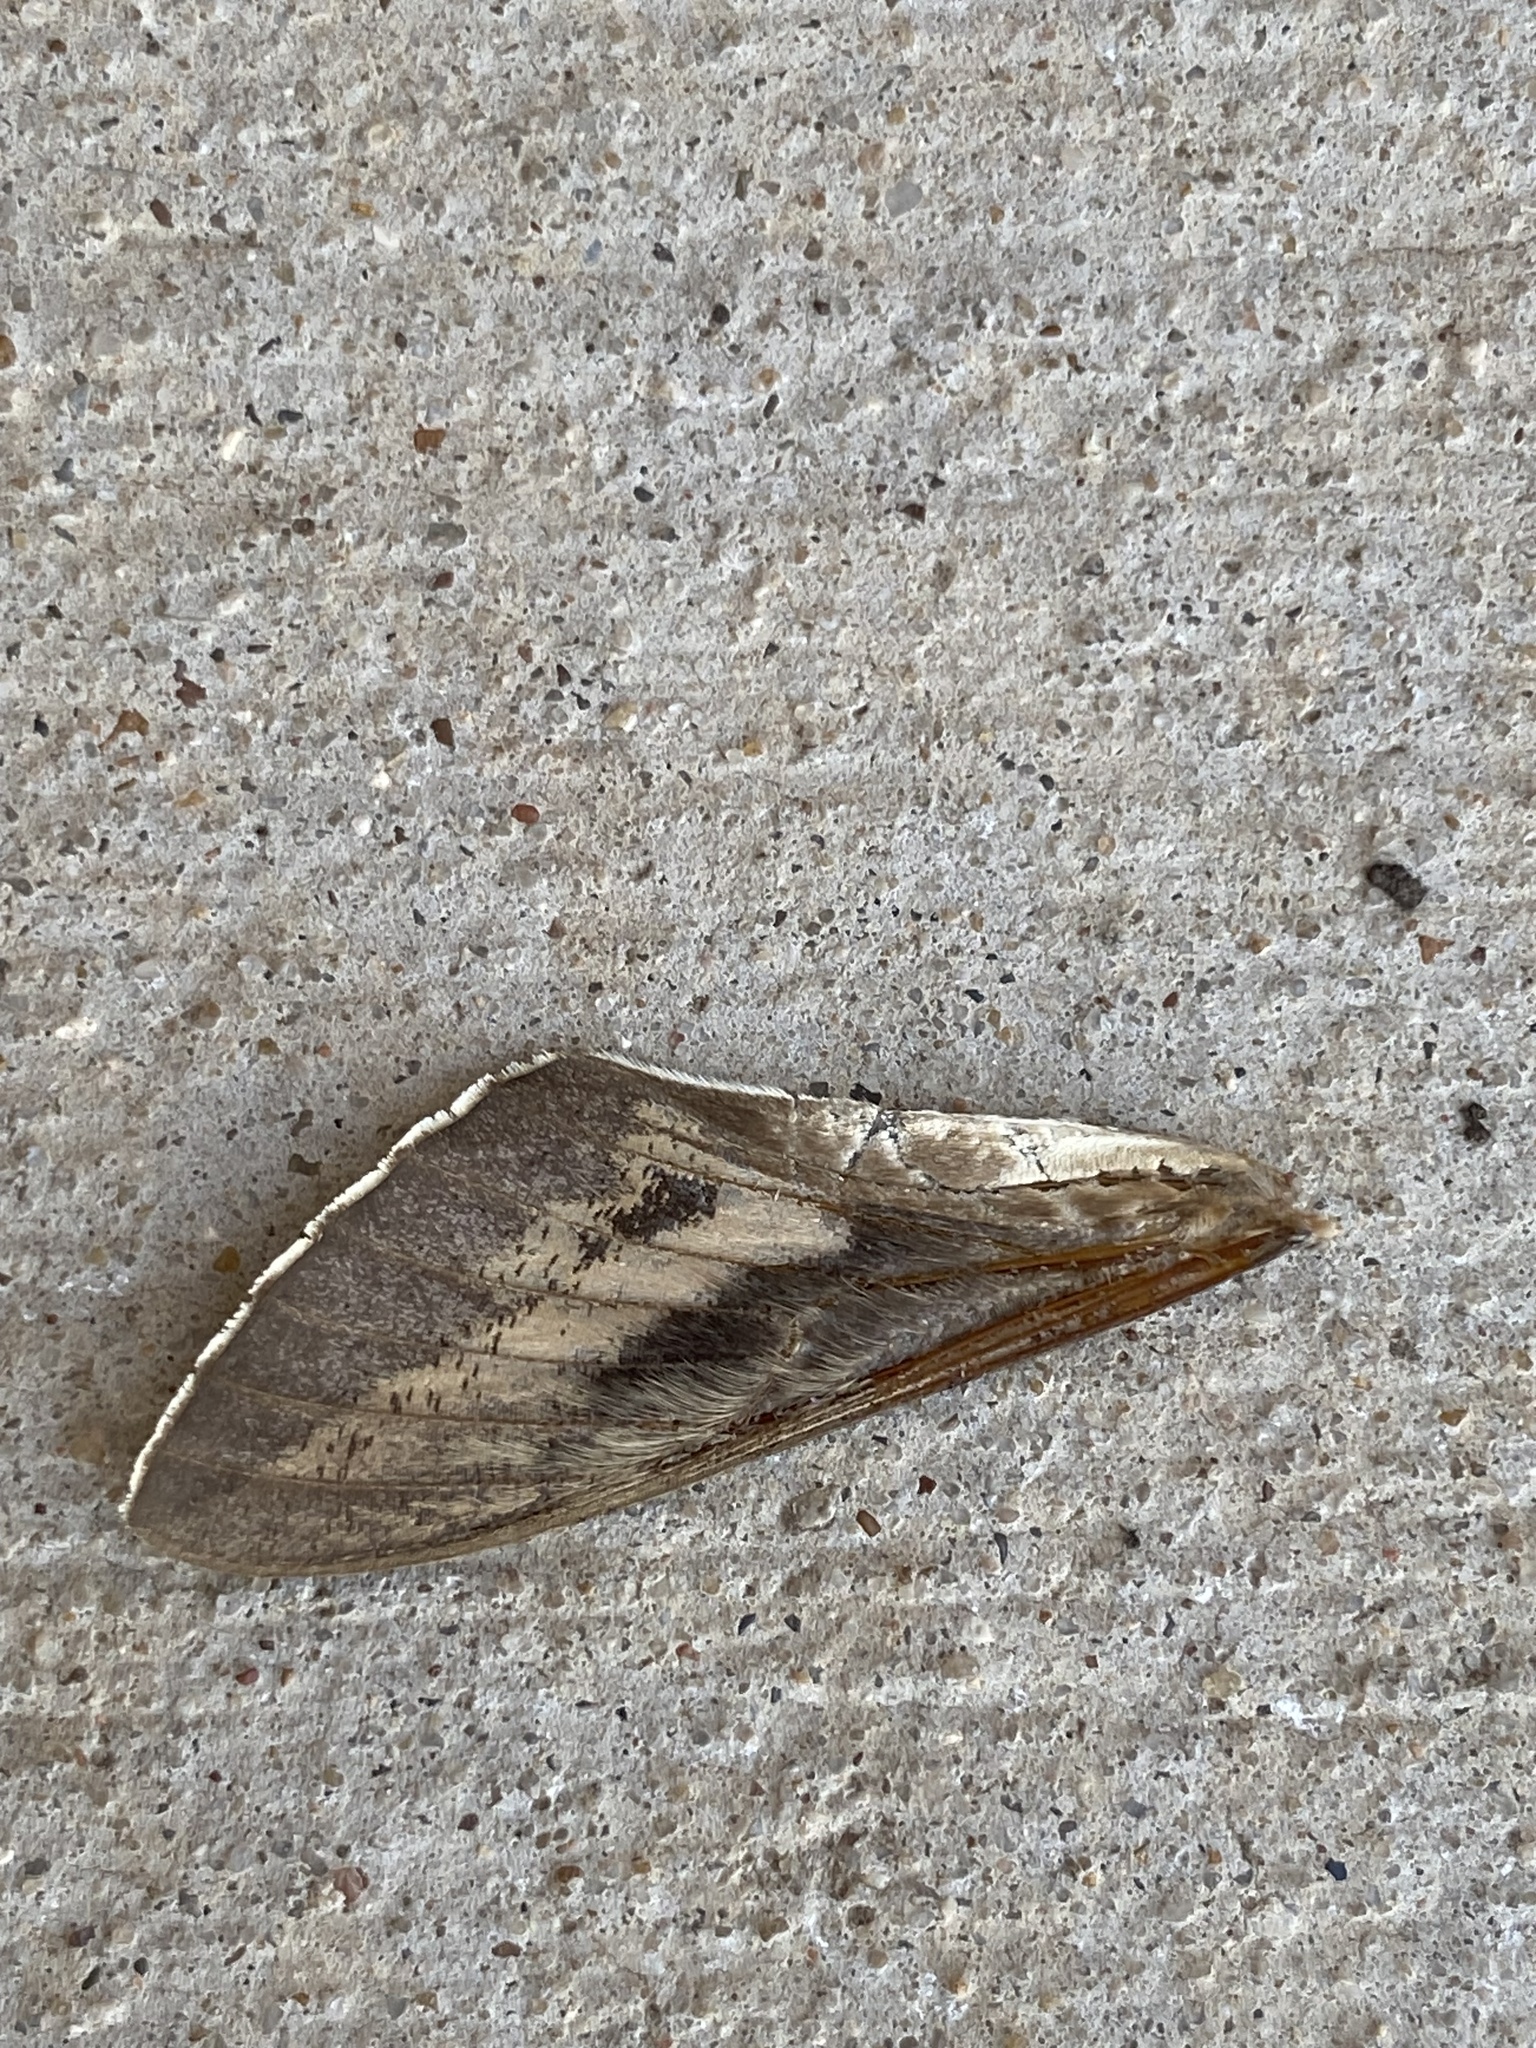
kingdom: Animalia
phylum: Arthropoda
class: Insecta
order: Lepidoptera
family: Sphingidae
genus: Hyles
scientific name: Hyles lineata
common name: White-lined sphinx
